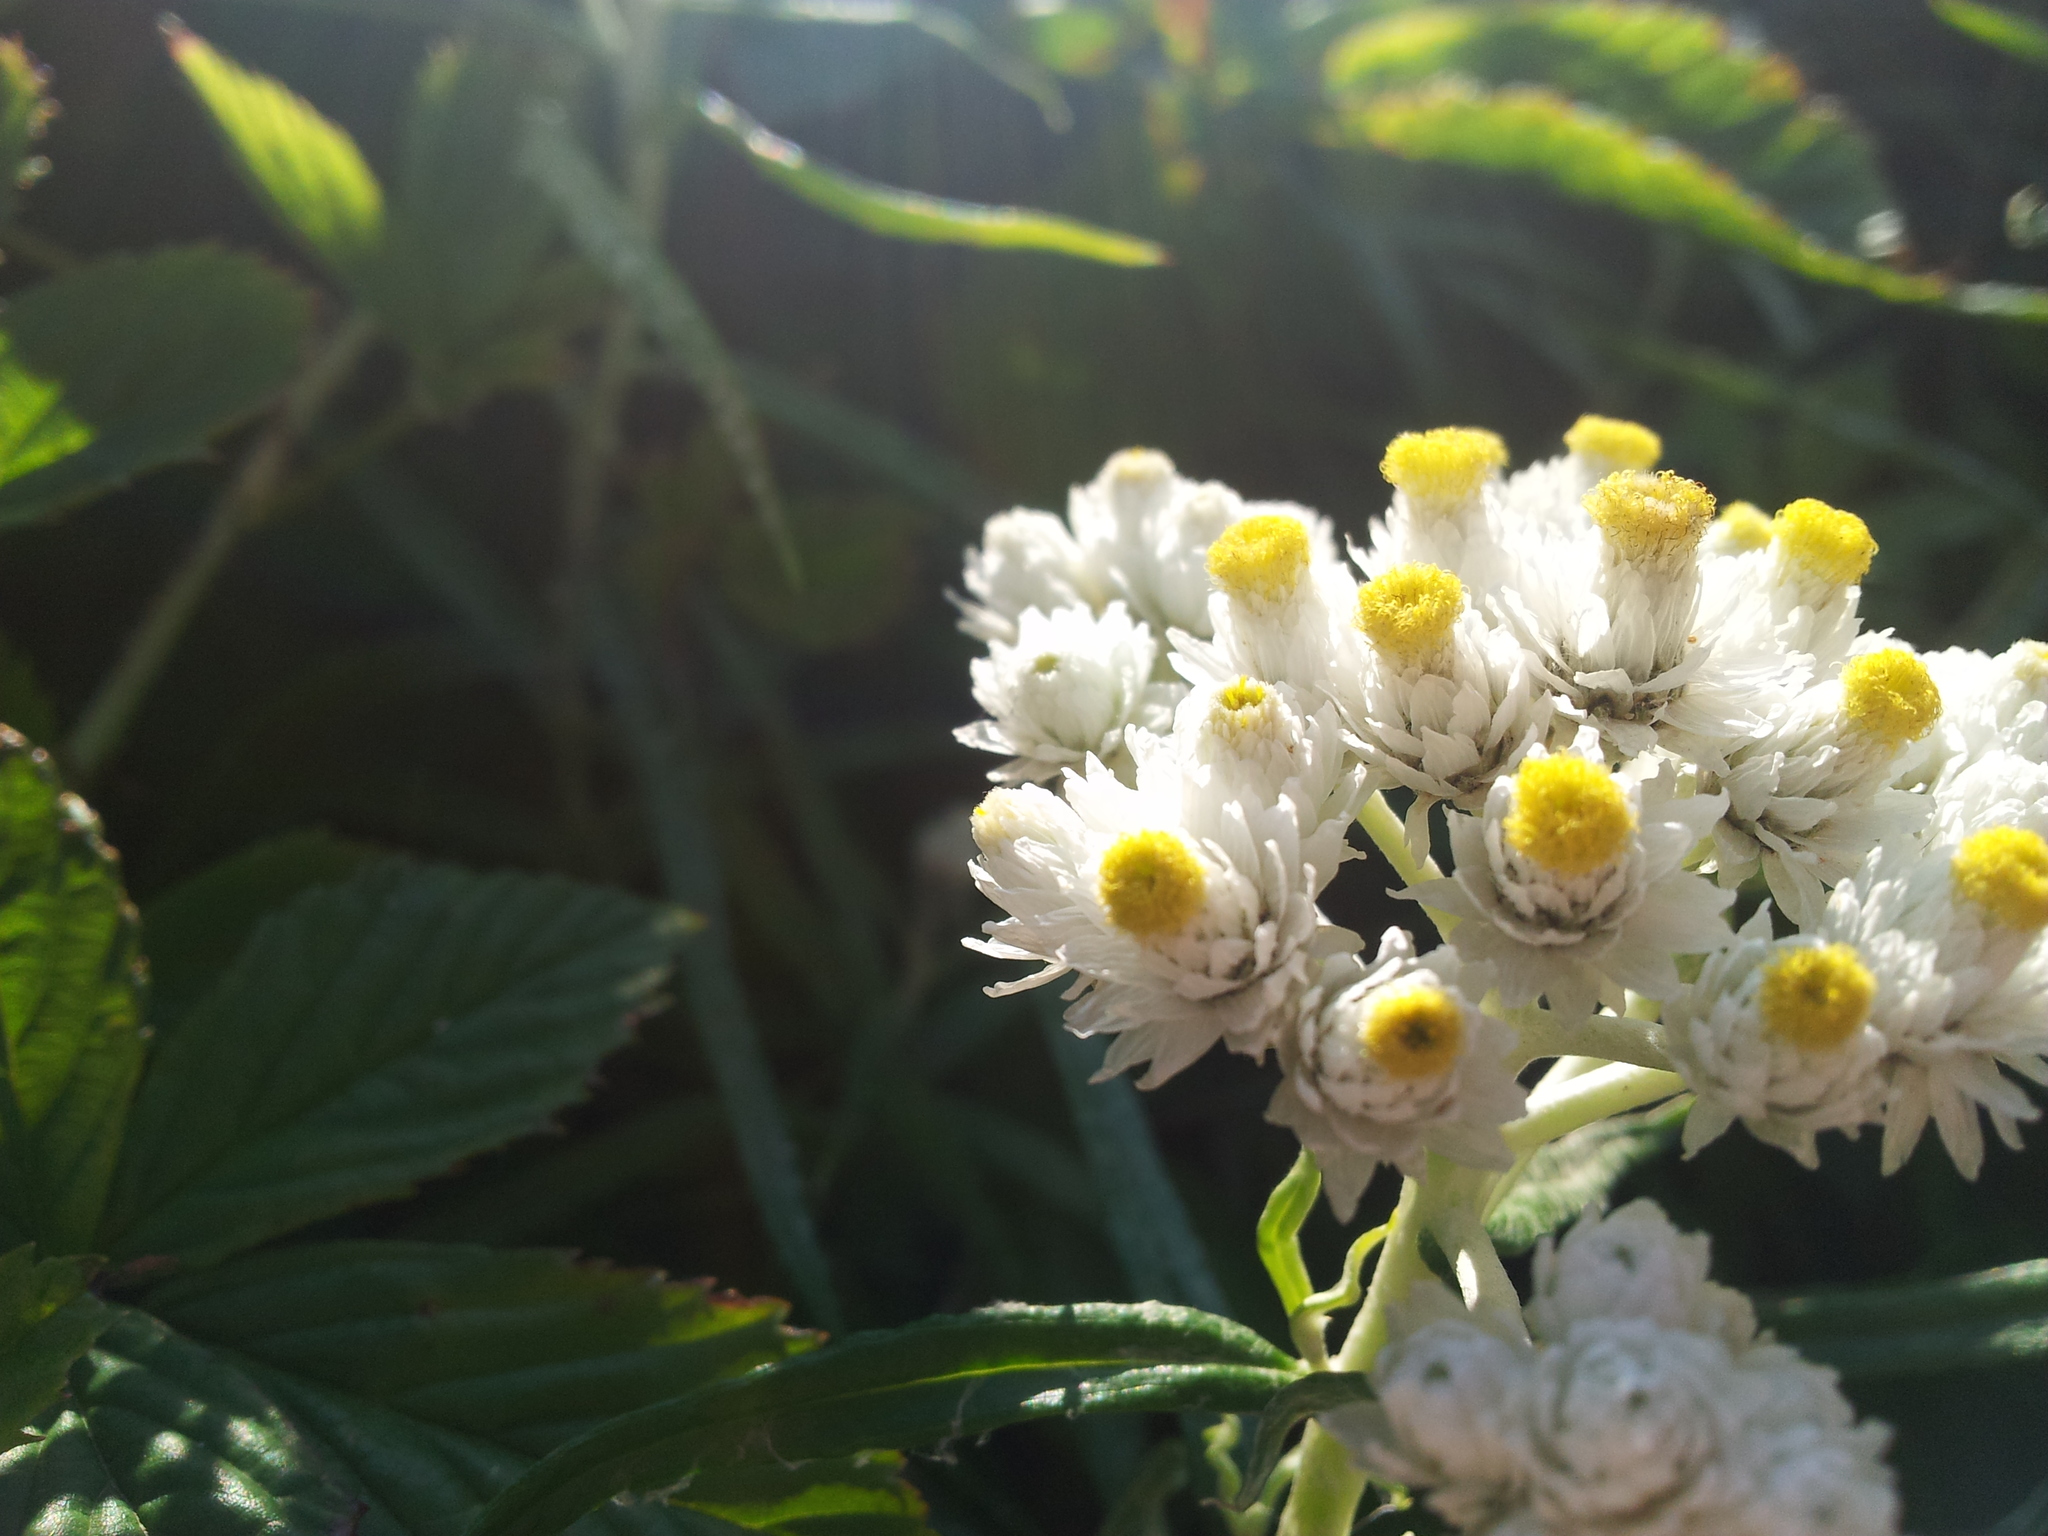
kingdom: Plantae
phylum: Tracheophyta
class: Magnoliopsida
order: Asterales
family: Asteraceae
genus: Anaphalis
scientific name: Anaphalis margaritacea
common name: Pearly everlasting
